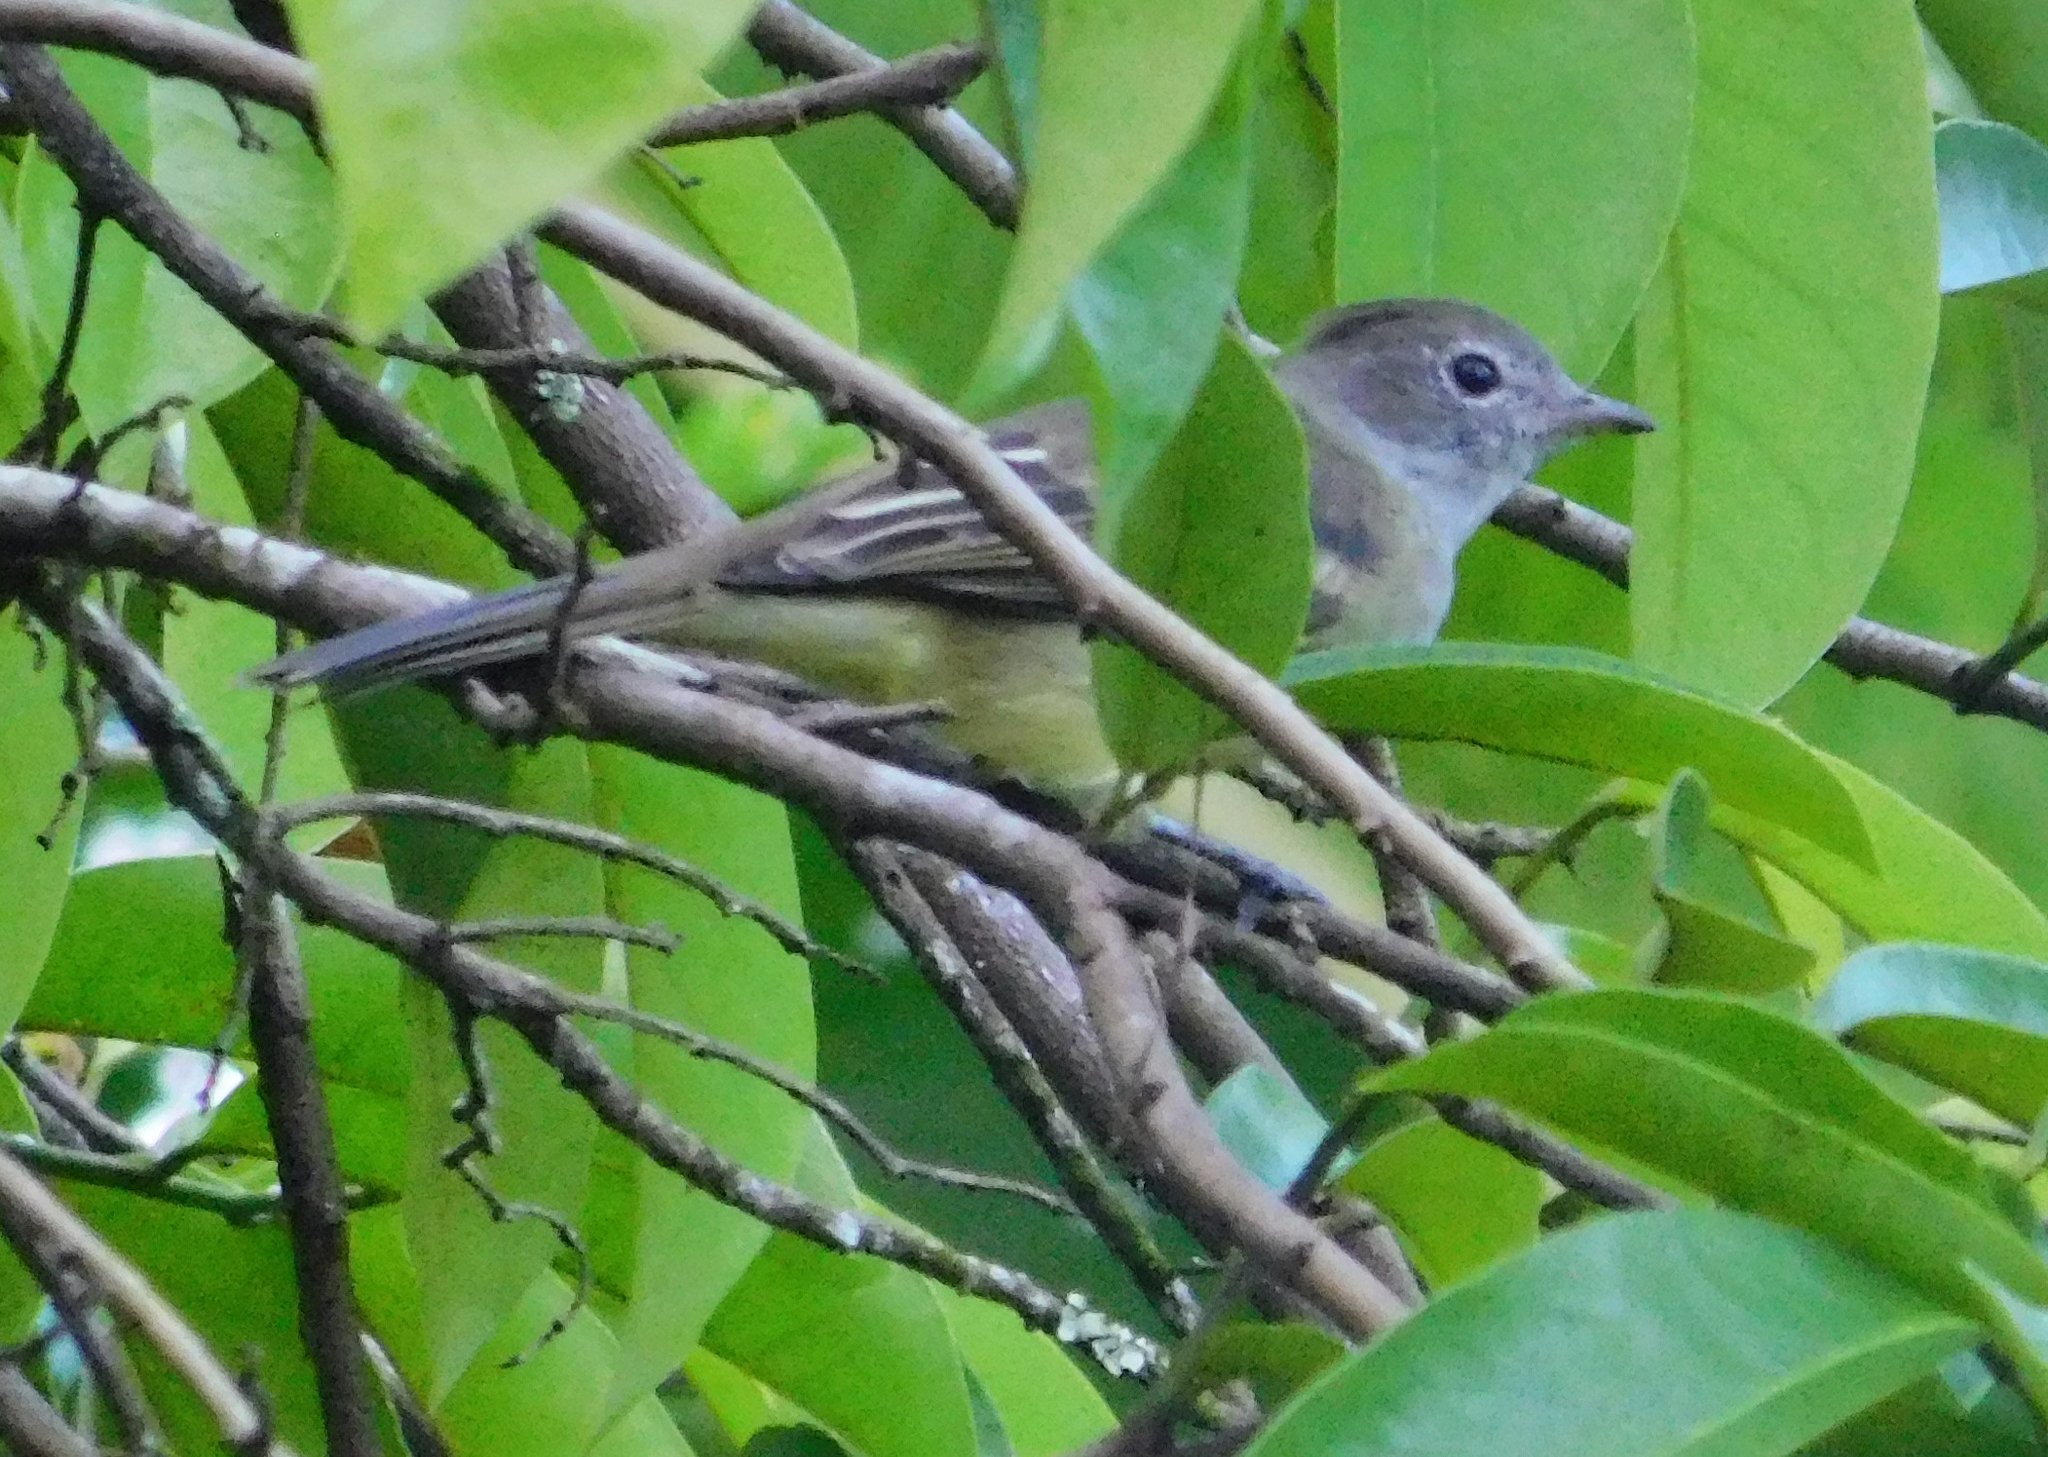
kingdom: Animalia
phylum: Chordata
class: Aves
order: Passeriformes
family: Tyrannidae
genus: Elaenia
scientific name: Elaenia flavogaster
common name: Yellow-bellied elaenia
